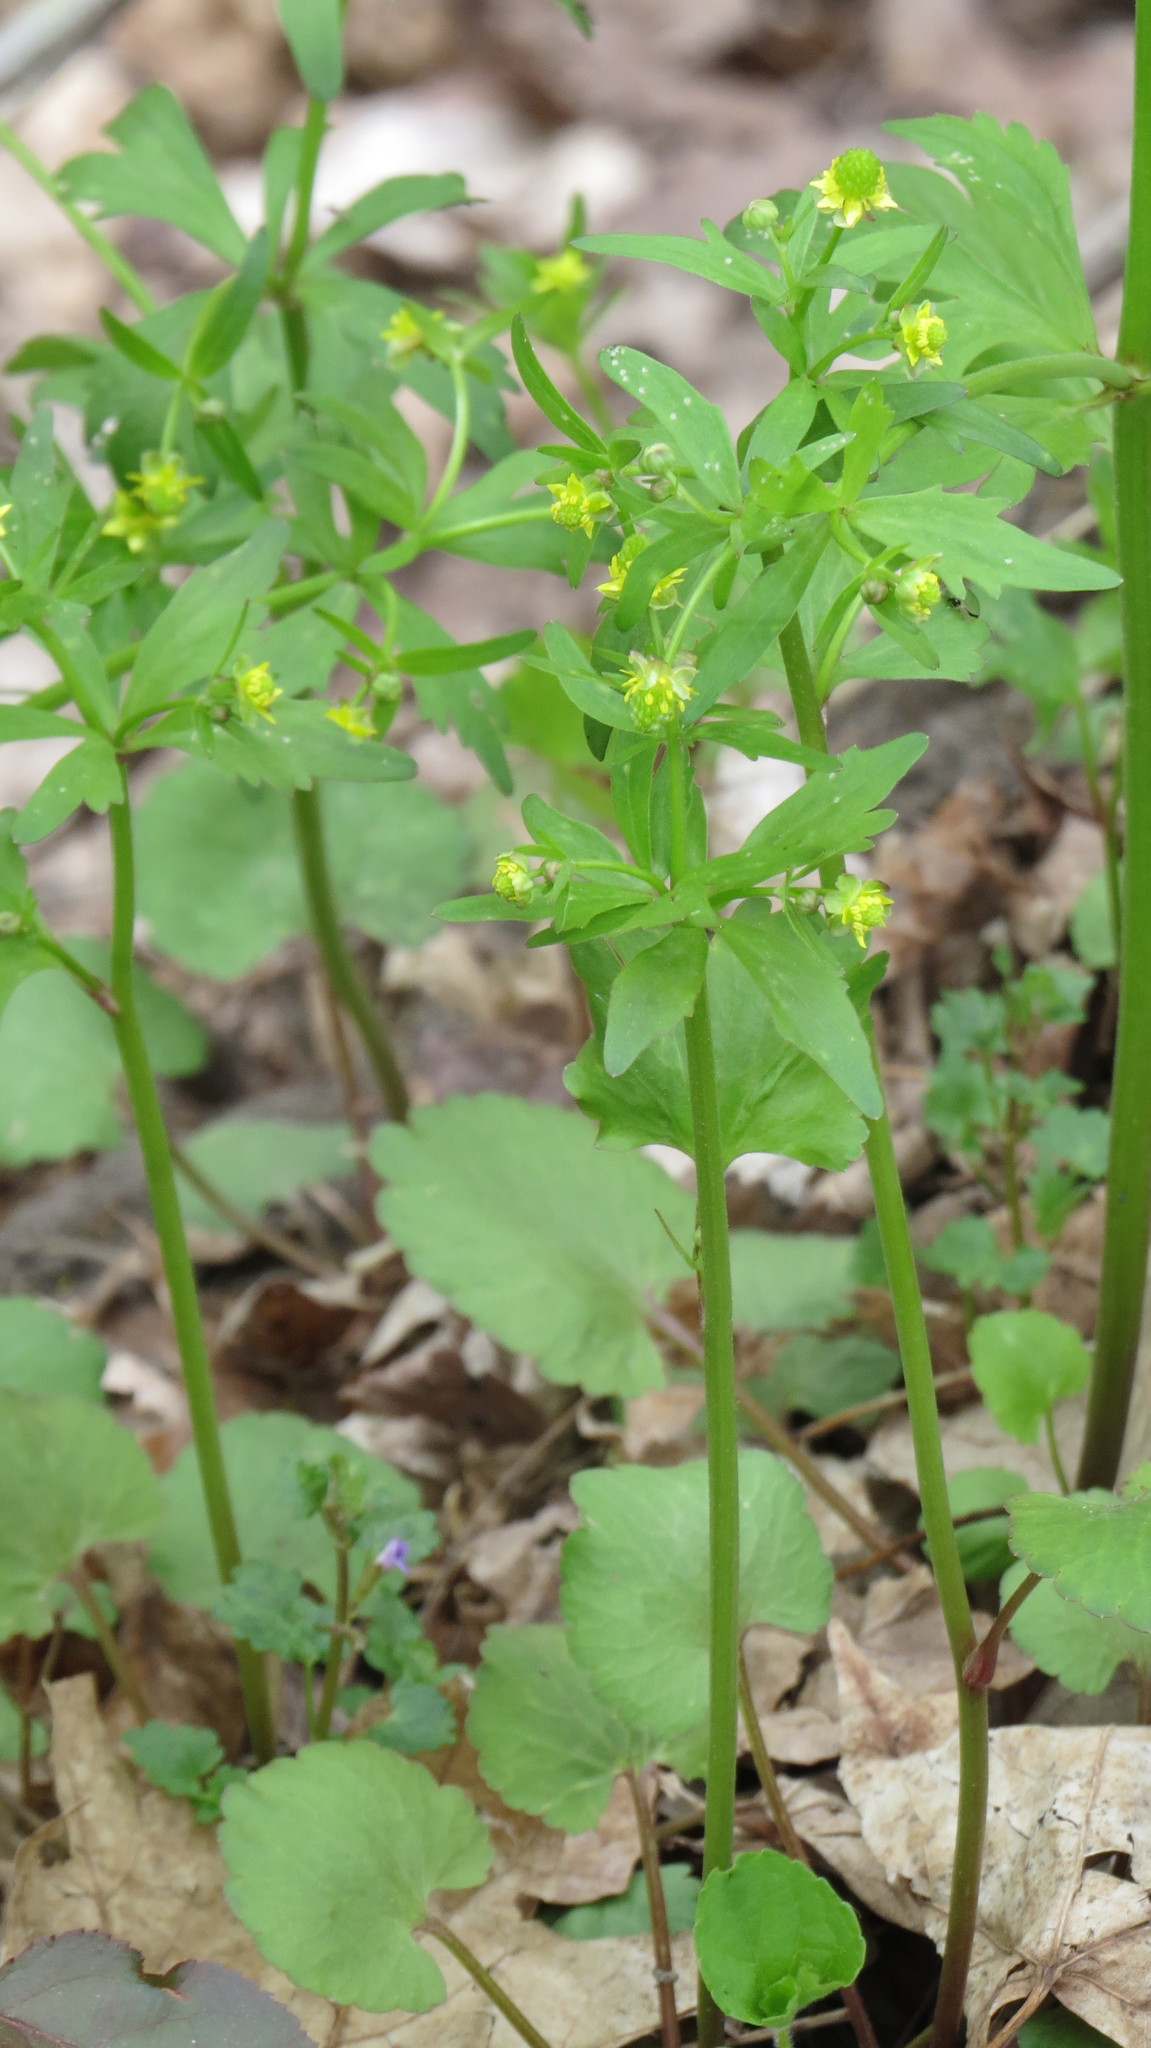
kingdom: Plantae
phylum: Tracheophyta
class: Magnoliopsida
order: Ranunculales
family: Ranunculaceae
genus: Ranunculus
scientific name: Ranunculus abortivus
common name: Early wood buttercup
